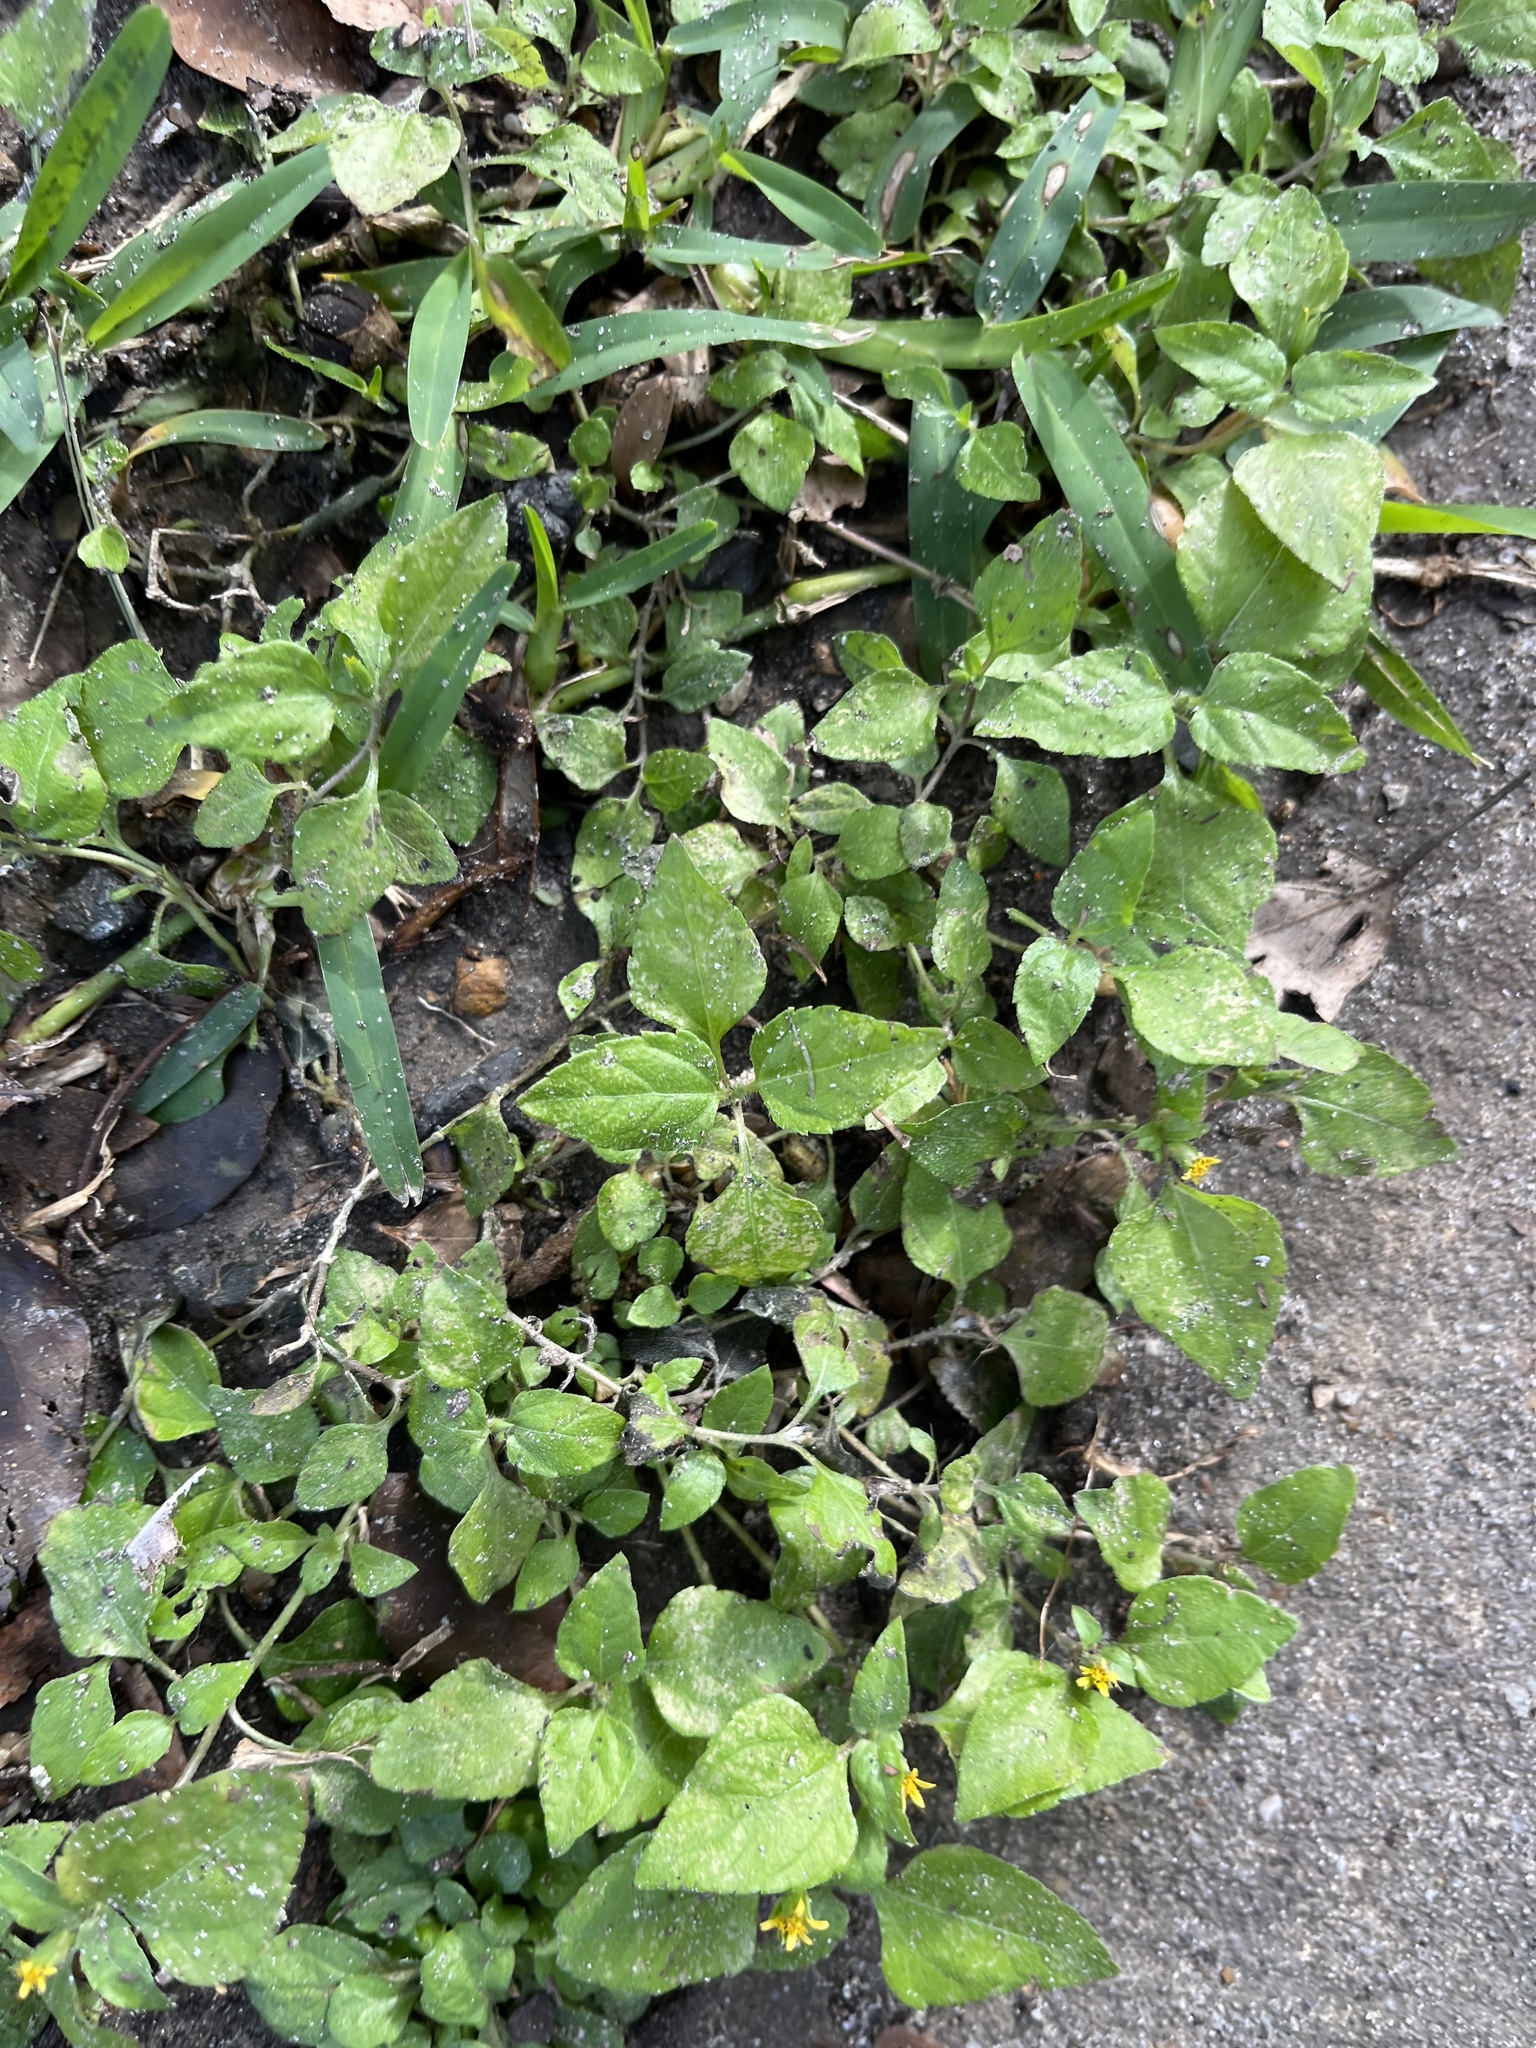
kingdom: Plantae
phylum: Tracheophyta
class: Magnoliopsida
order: Asterales
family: Asteraceae
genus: Calyptocarpus
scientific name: Calyptocarpus vialis
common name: Straggler daisy
